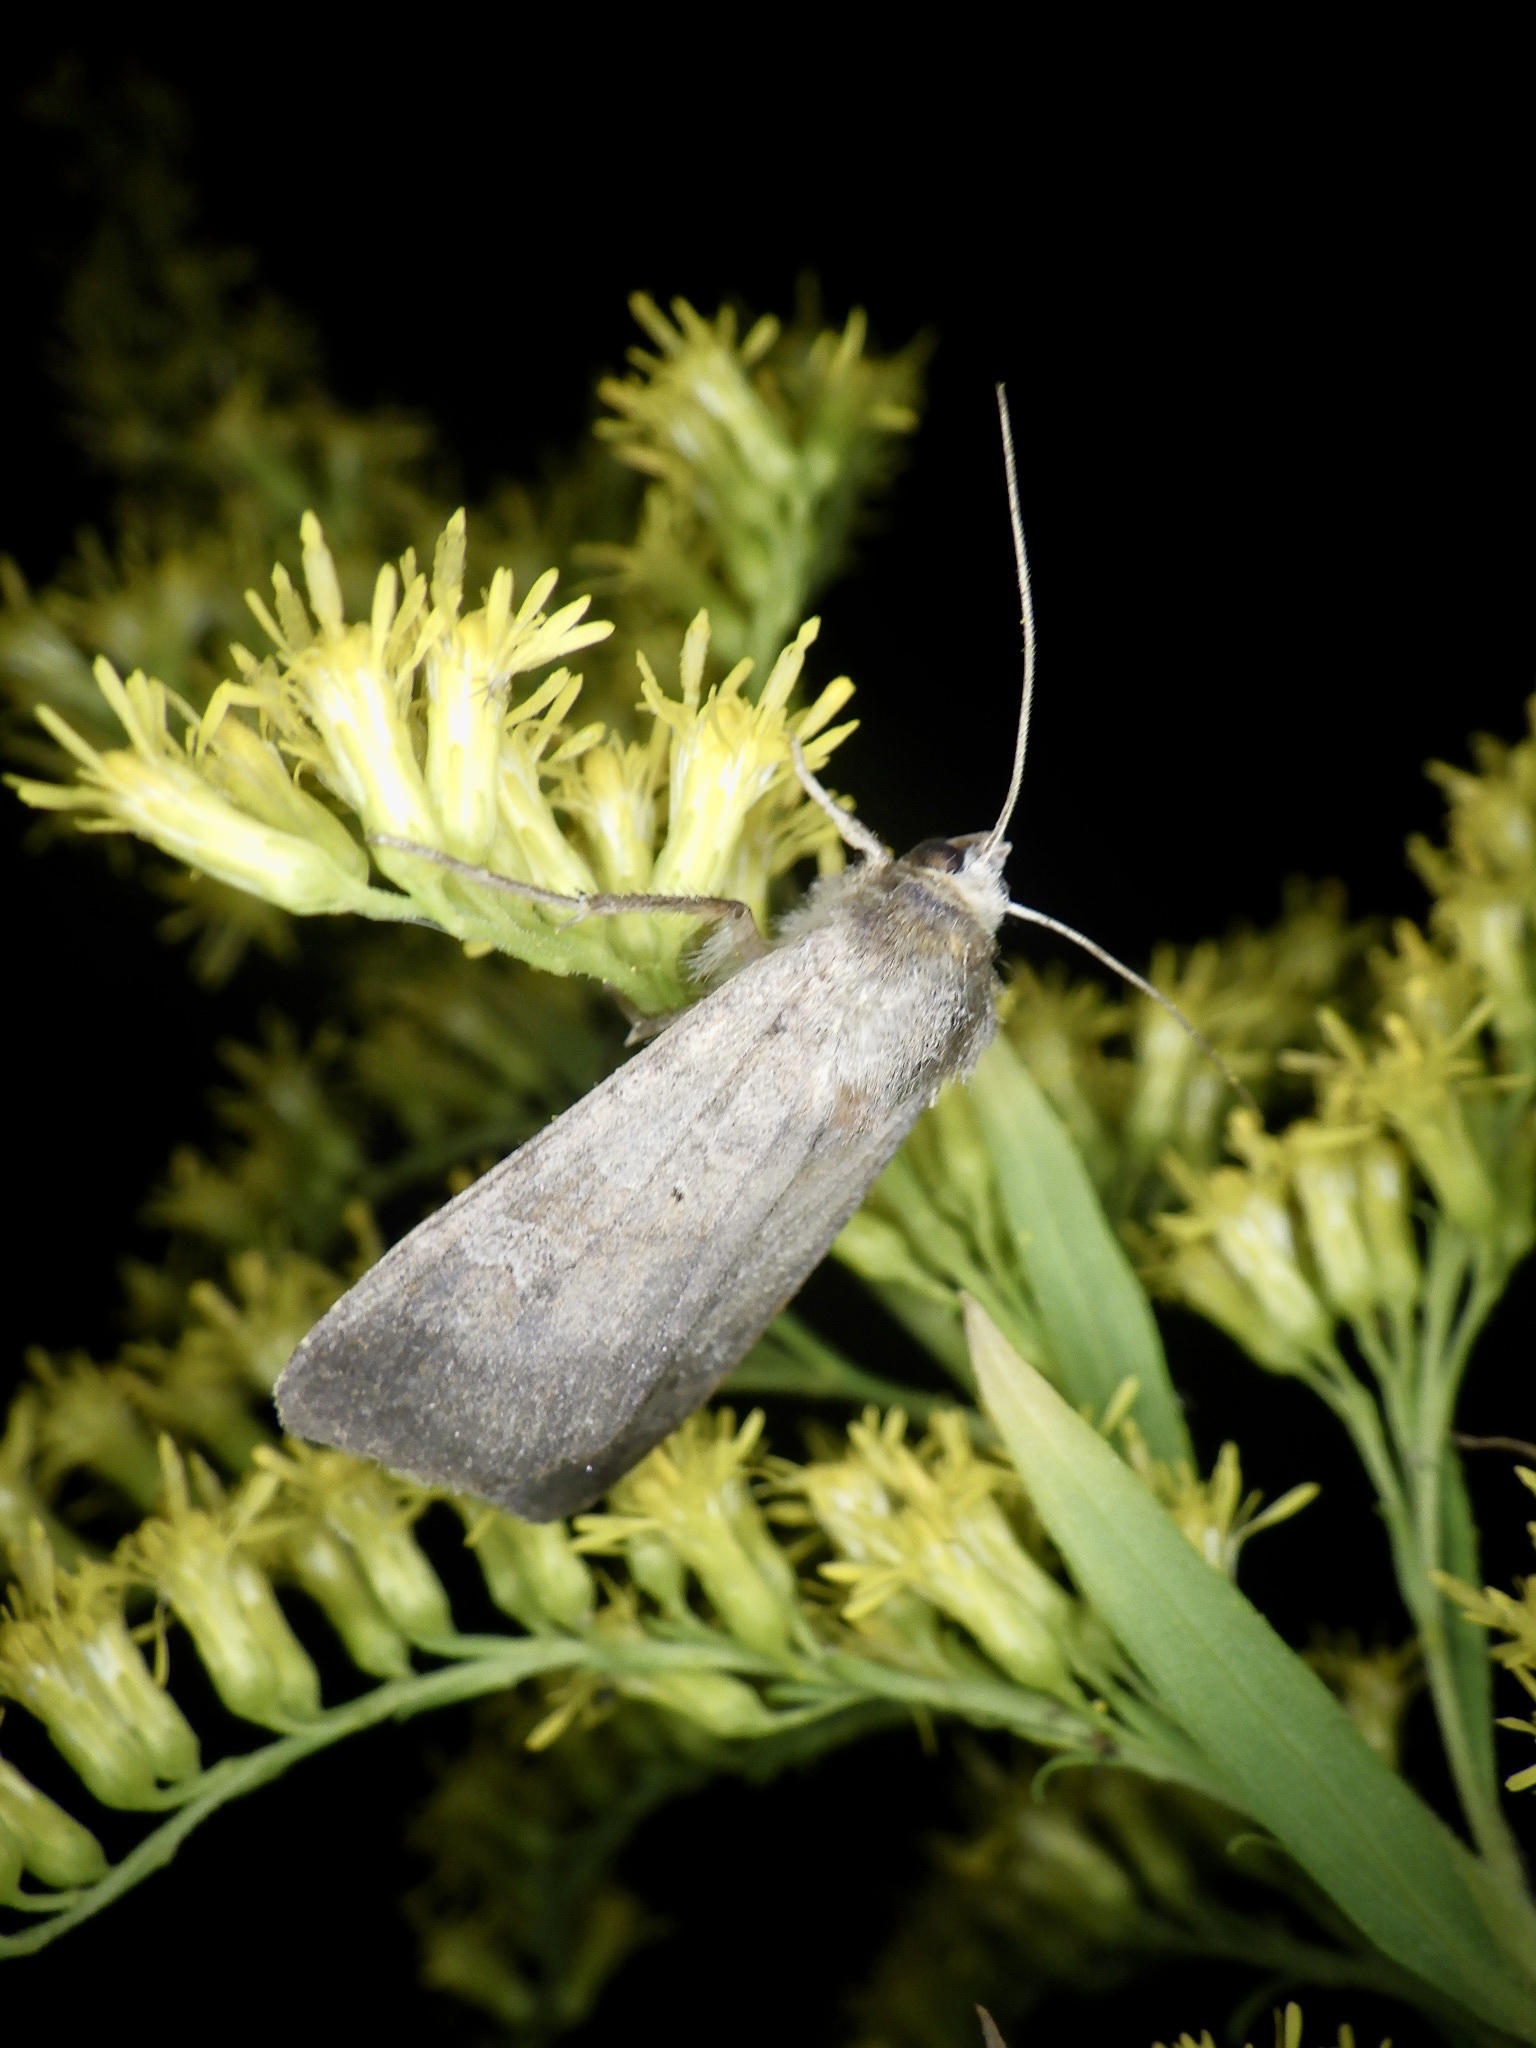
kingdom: Animalia
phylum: Arthropoda
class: Insecta
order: Lepidoptera
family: Noctuidae
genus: Diarsia
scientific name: Diarsia canescens
